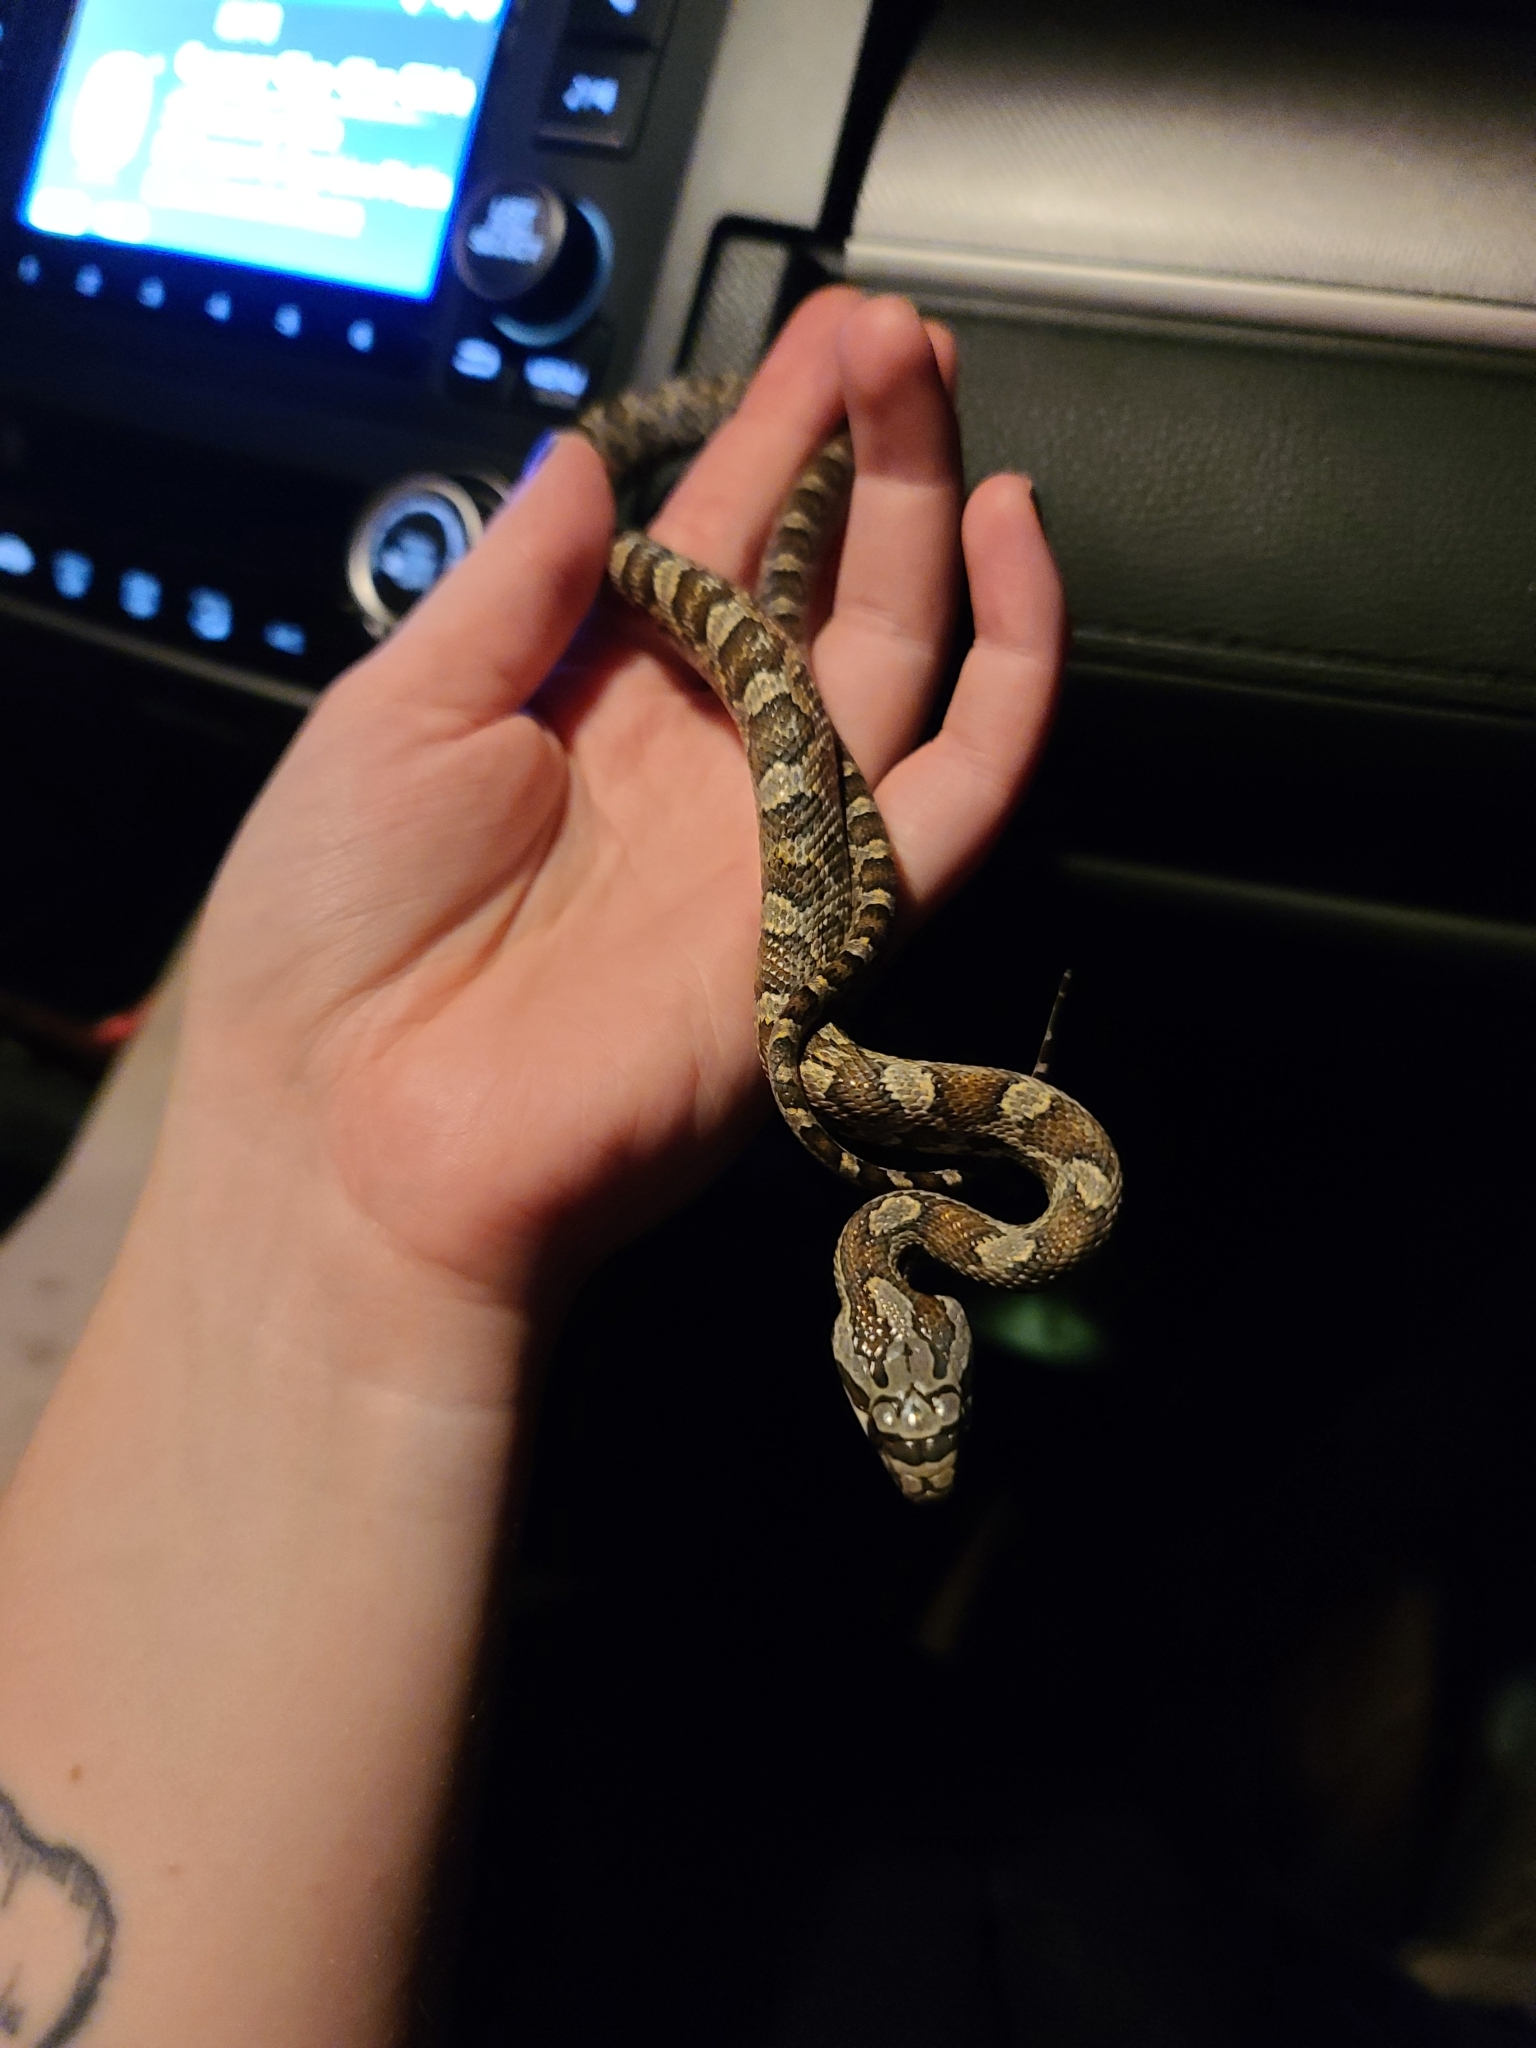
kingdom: Animalia
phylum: Chordata
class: Squamata
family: Colubridae
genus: Pantherophis
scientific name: Pantherophis obsoletus
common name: Black rat snake
